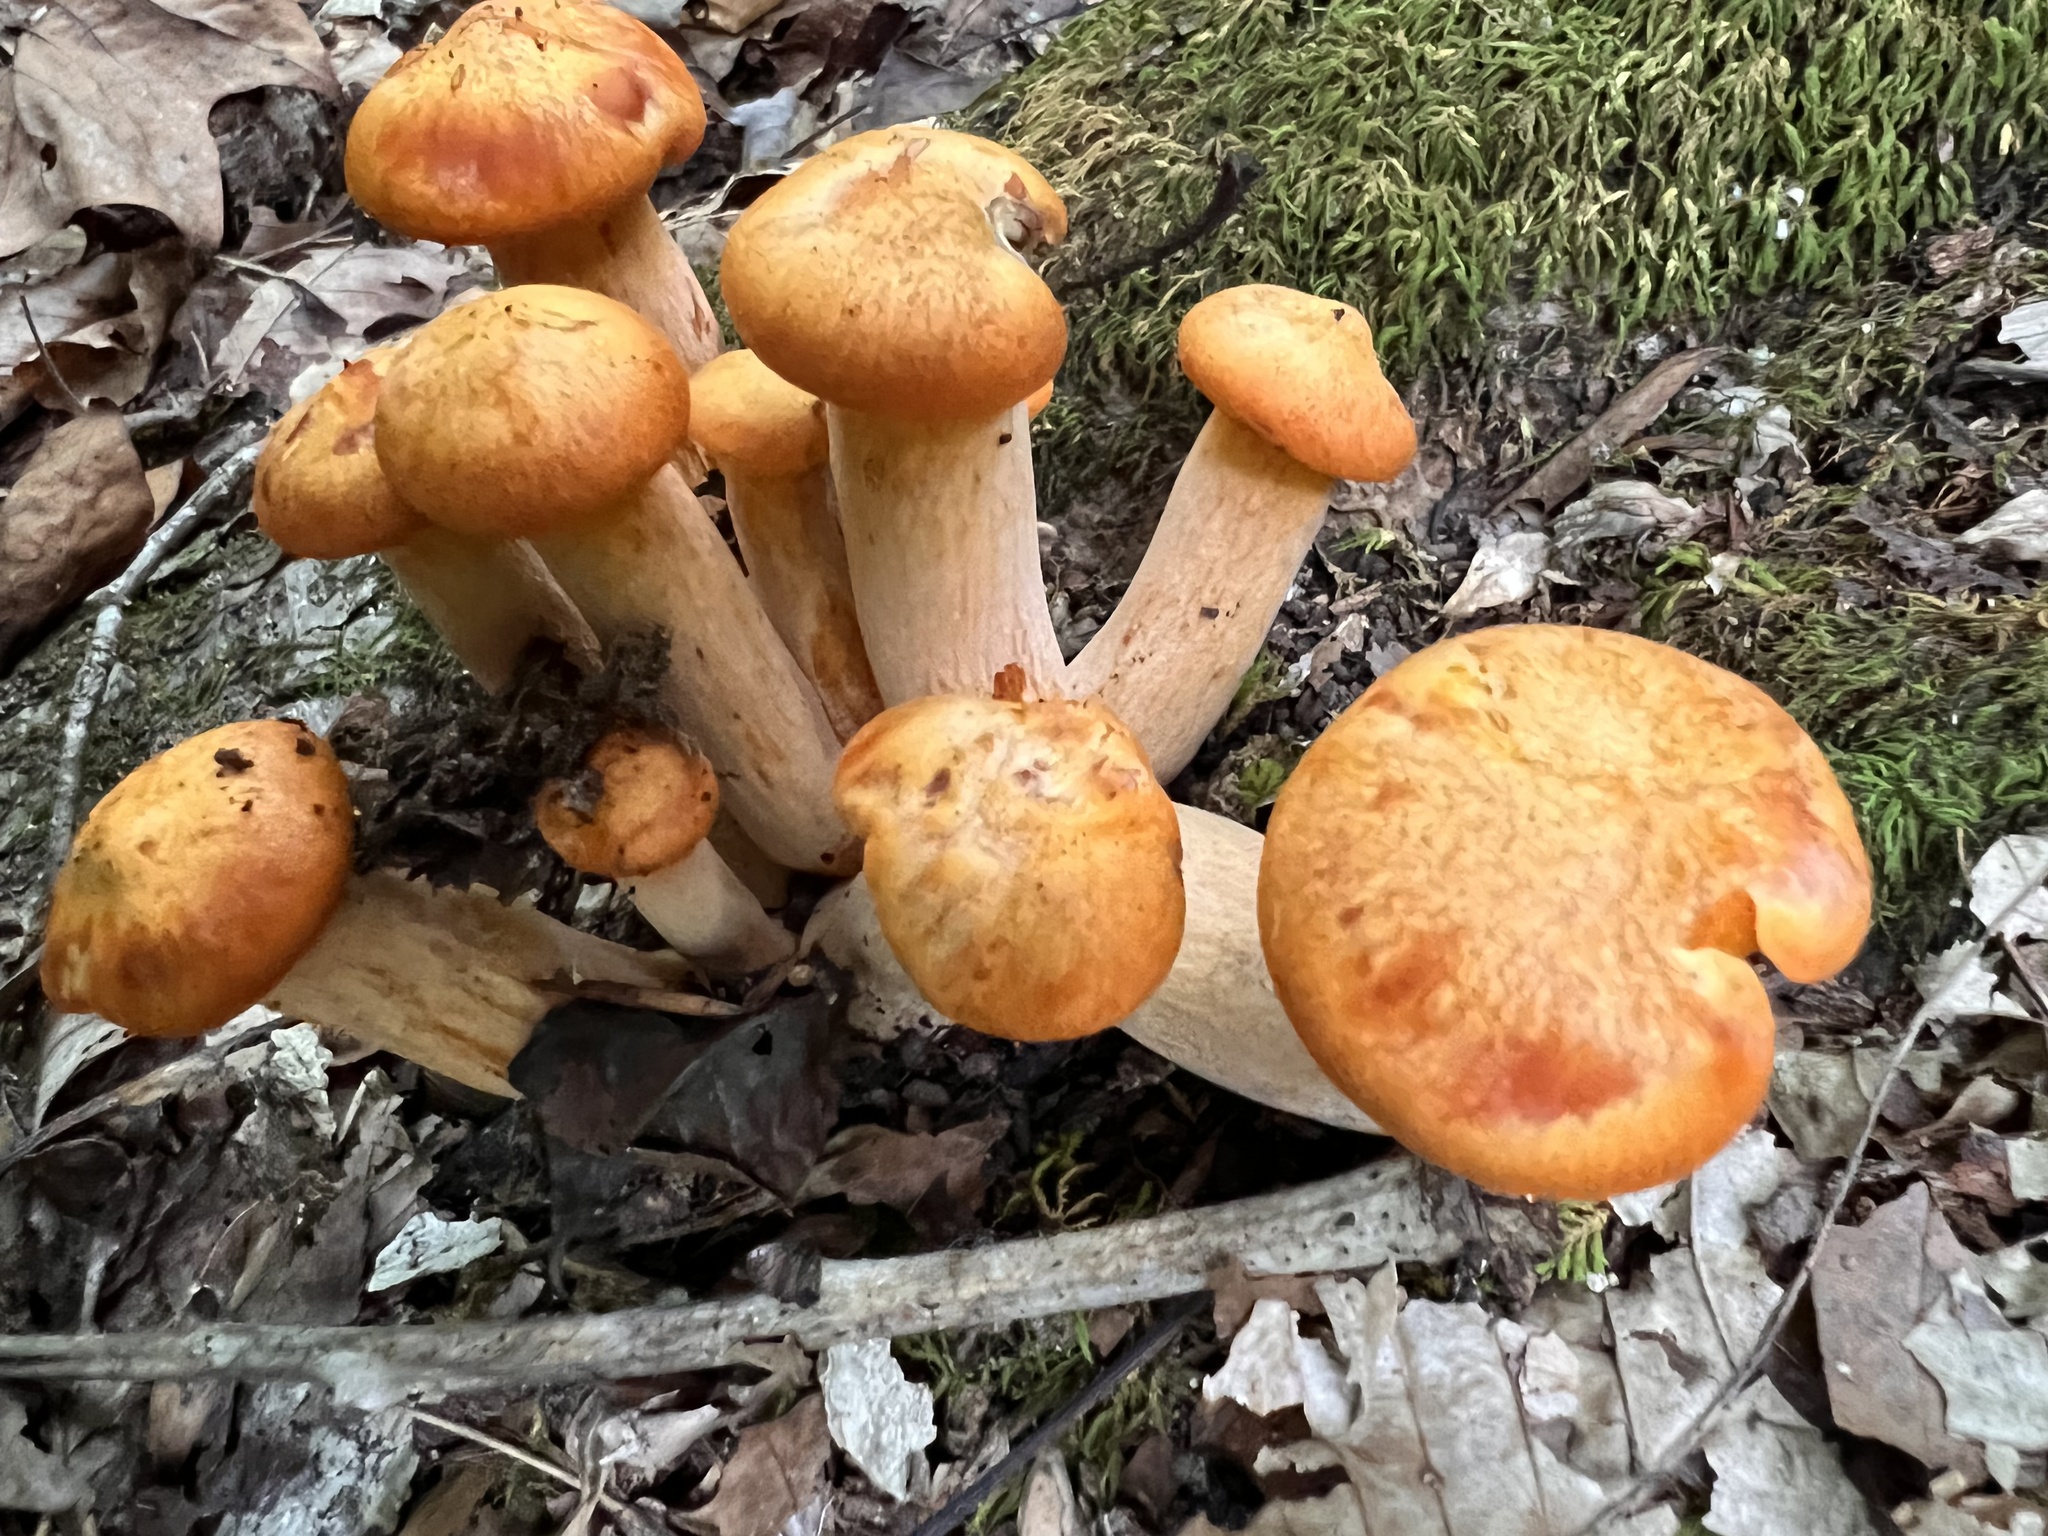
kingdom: Fungi
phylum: Basidiomycota
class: Agaricomycetes
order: Agaricales
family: Omphalotaceae
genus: Omphalotus
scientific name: Omphalotus illudens
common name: Jack o lantern
